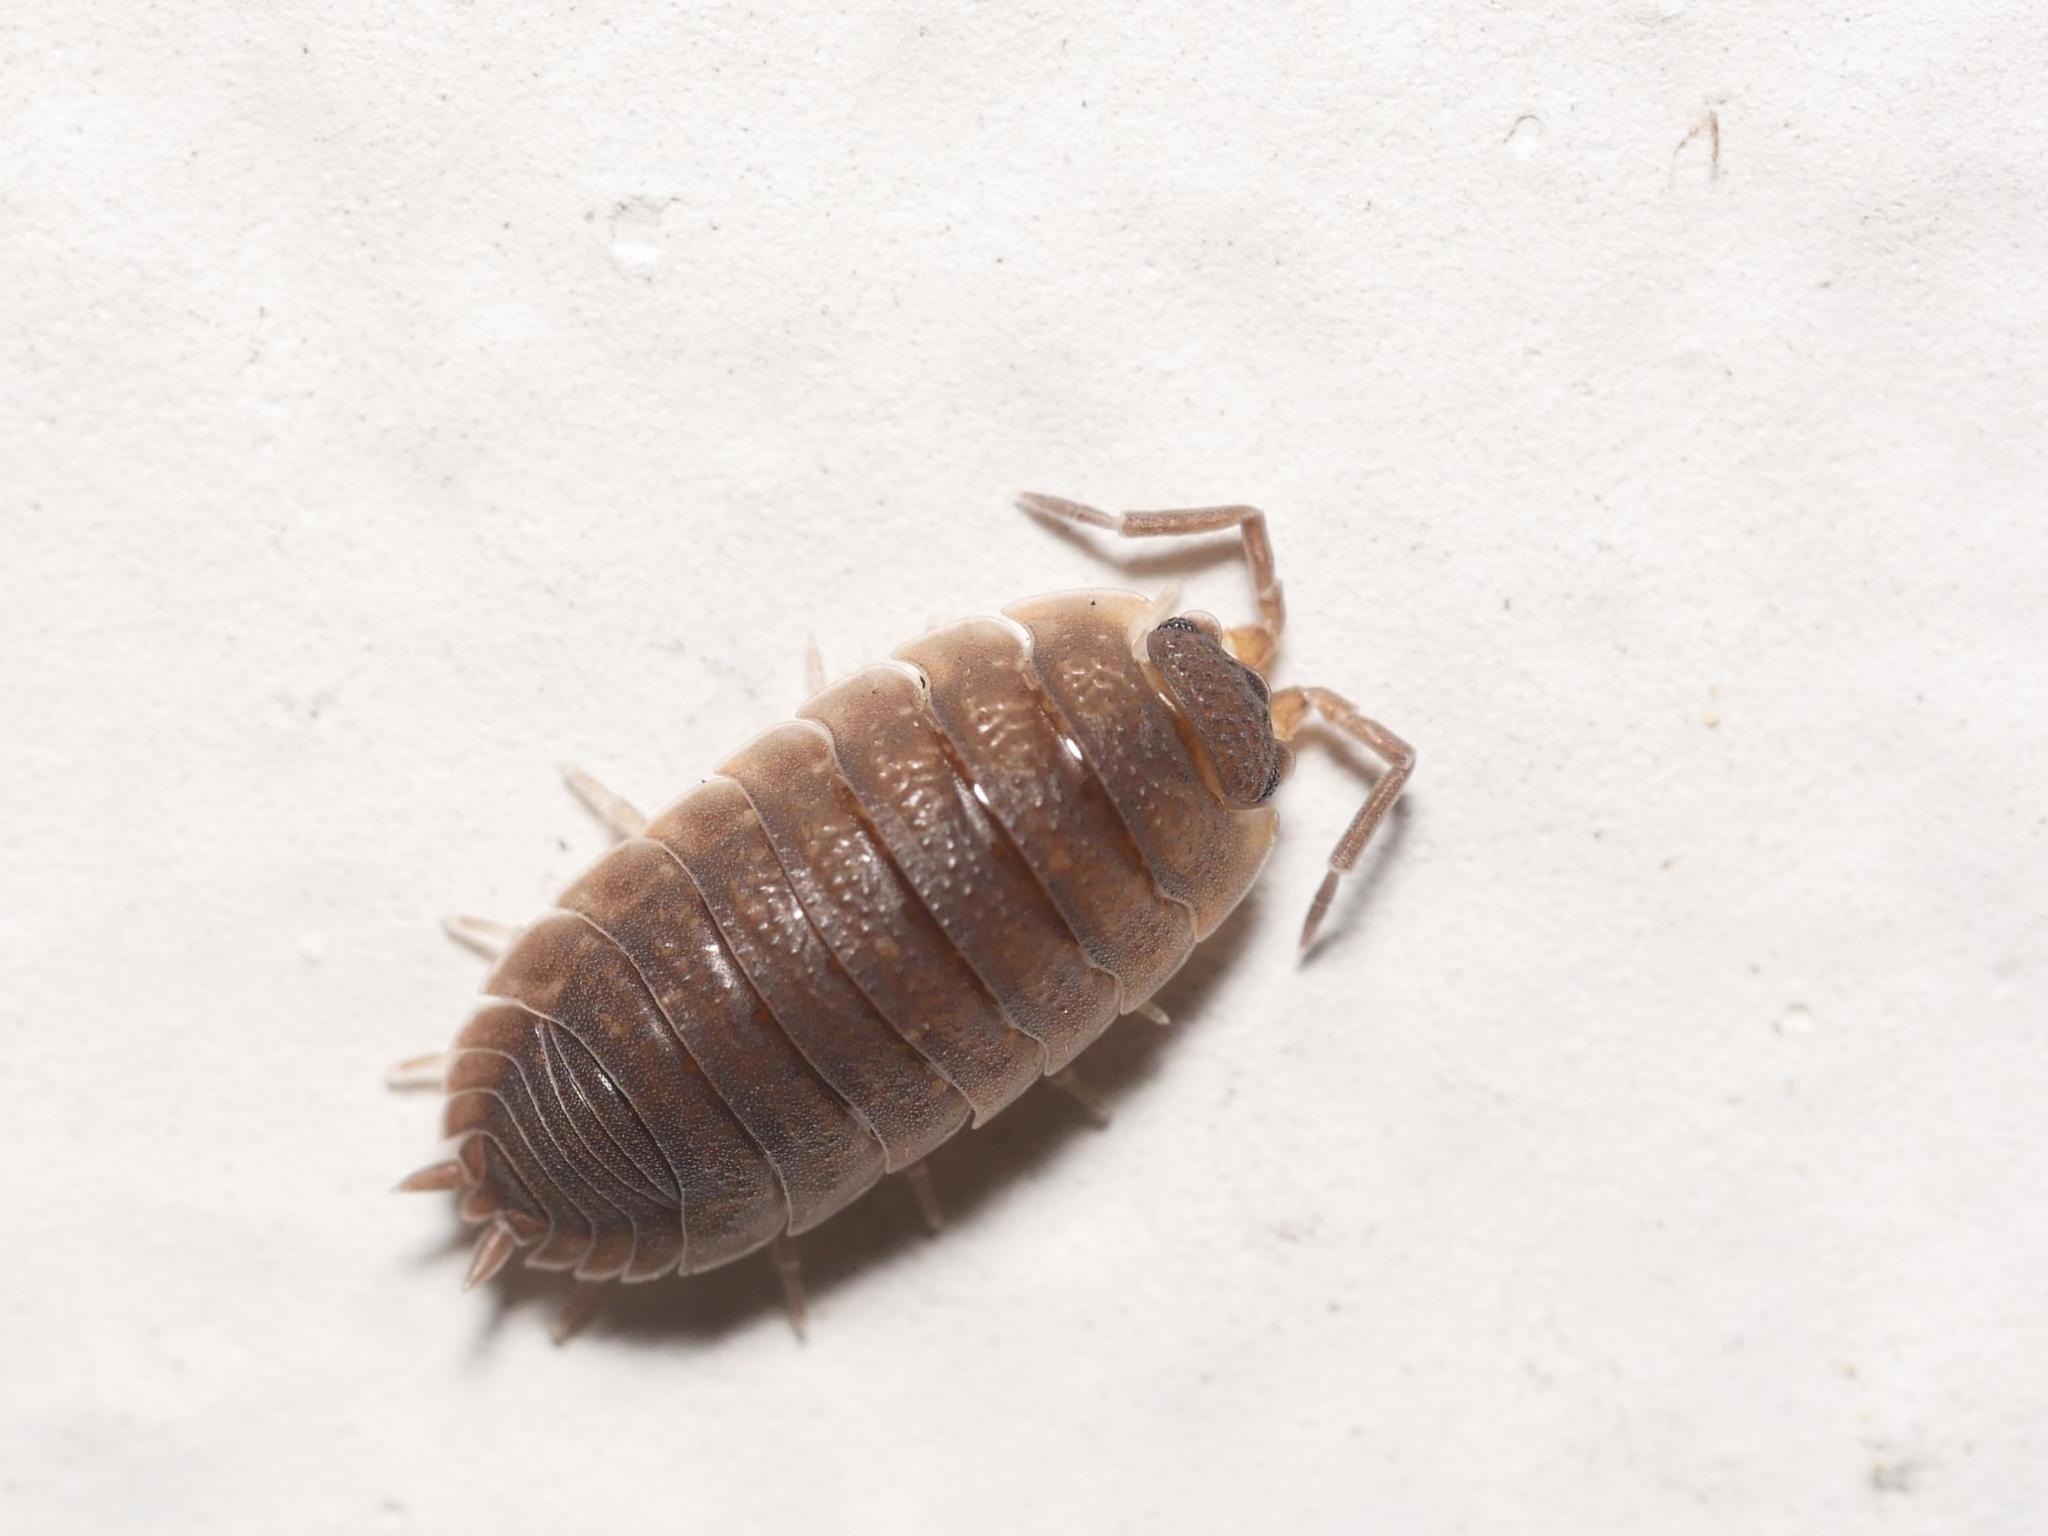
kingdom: Animalia
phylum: Arthropoda
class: Malacostraca
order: Isopoda
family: Porcellionidae
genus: Porcellio
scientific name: Porcellio scaber
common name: Common rough woodlouse
